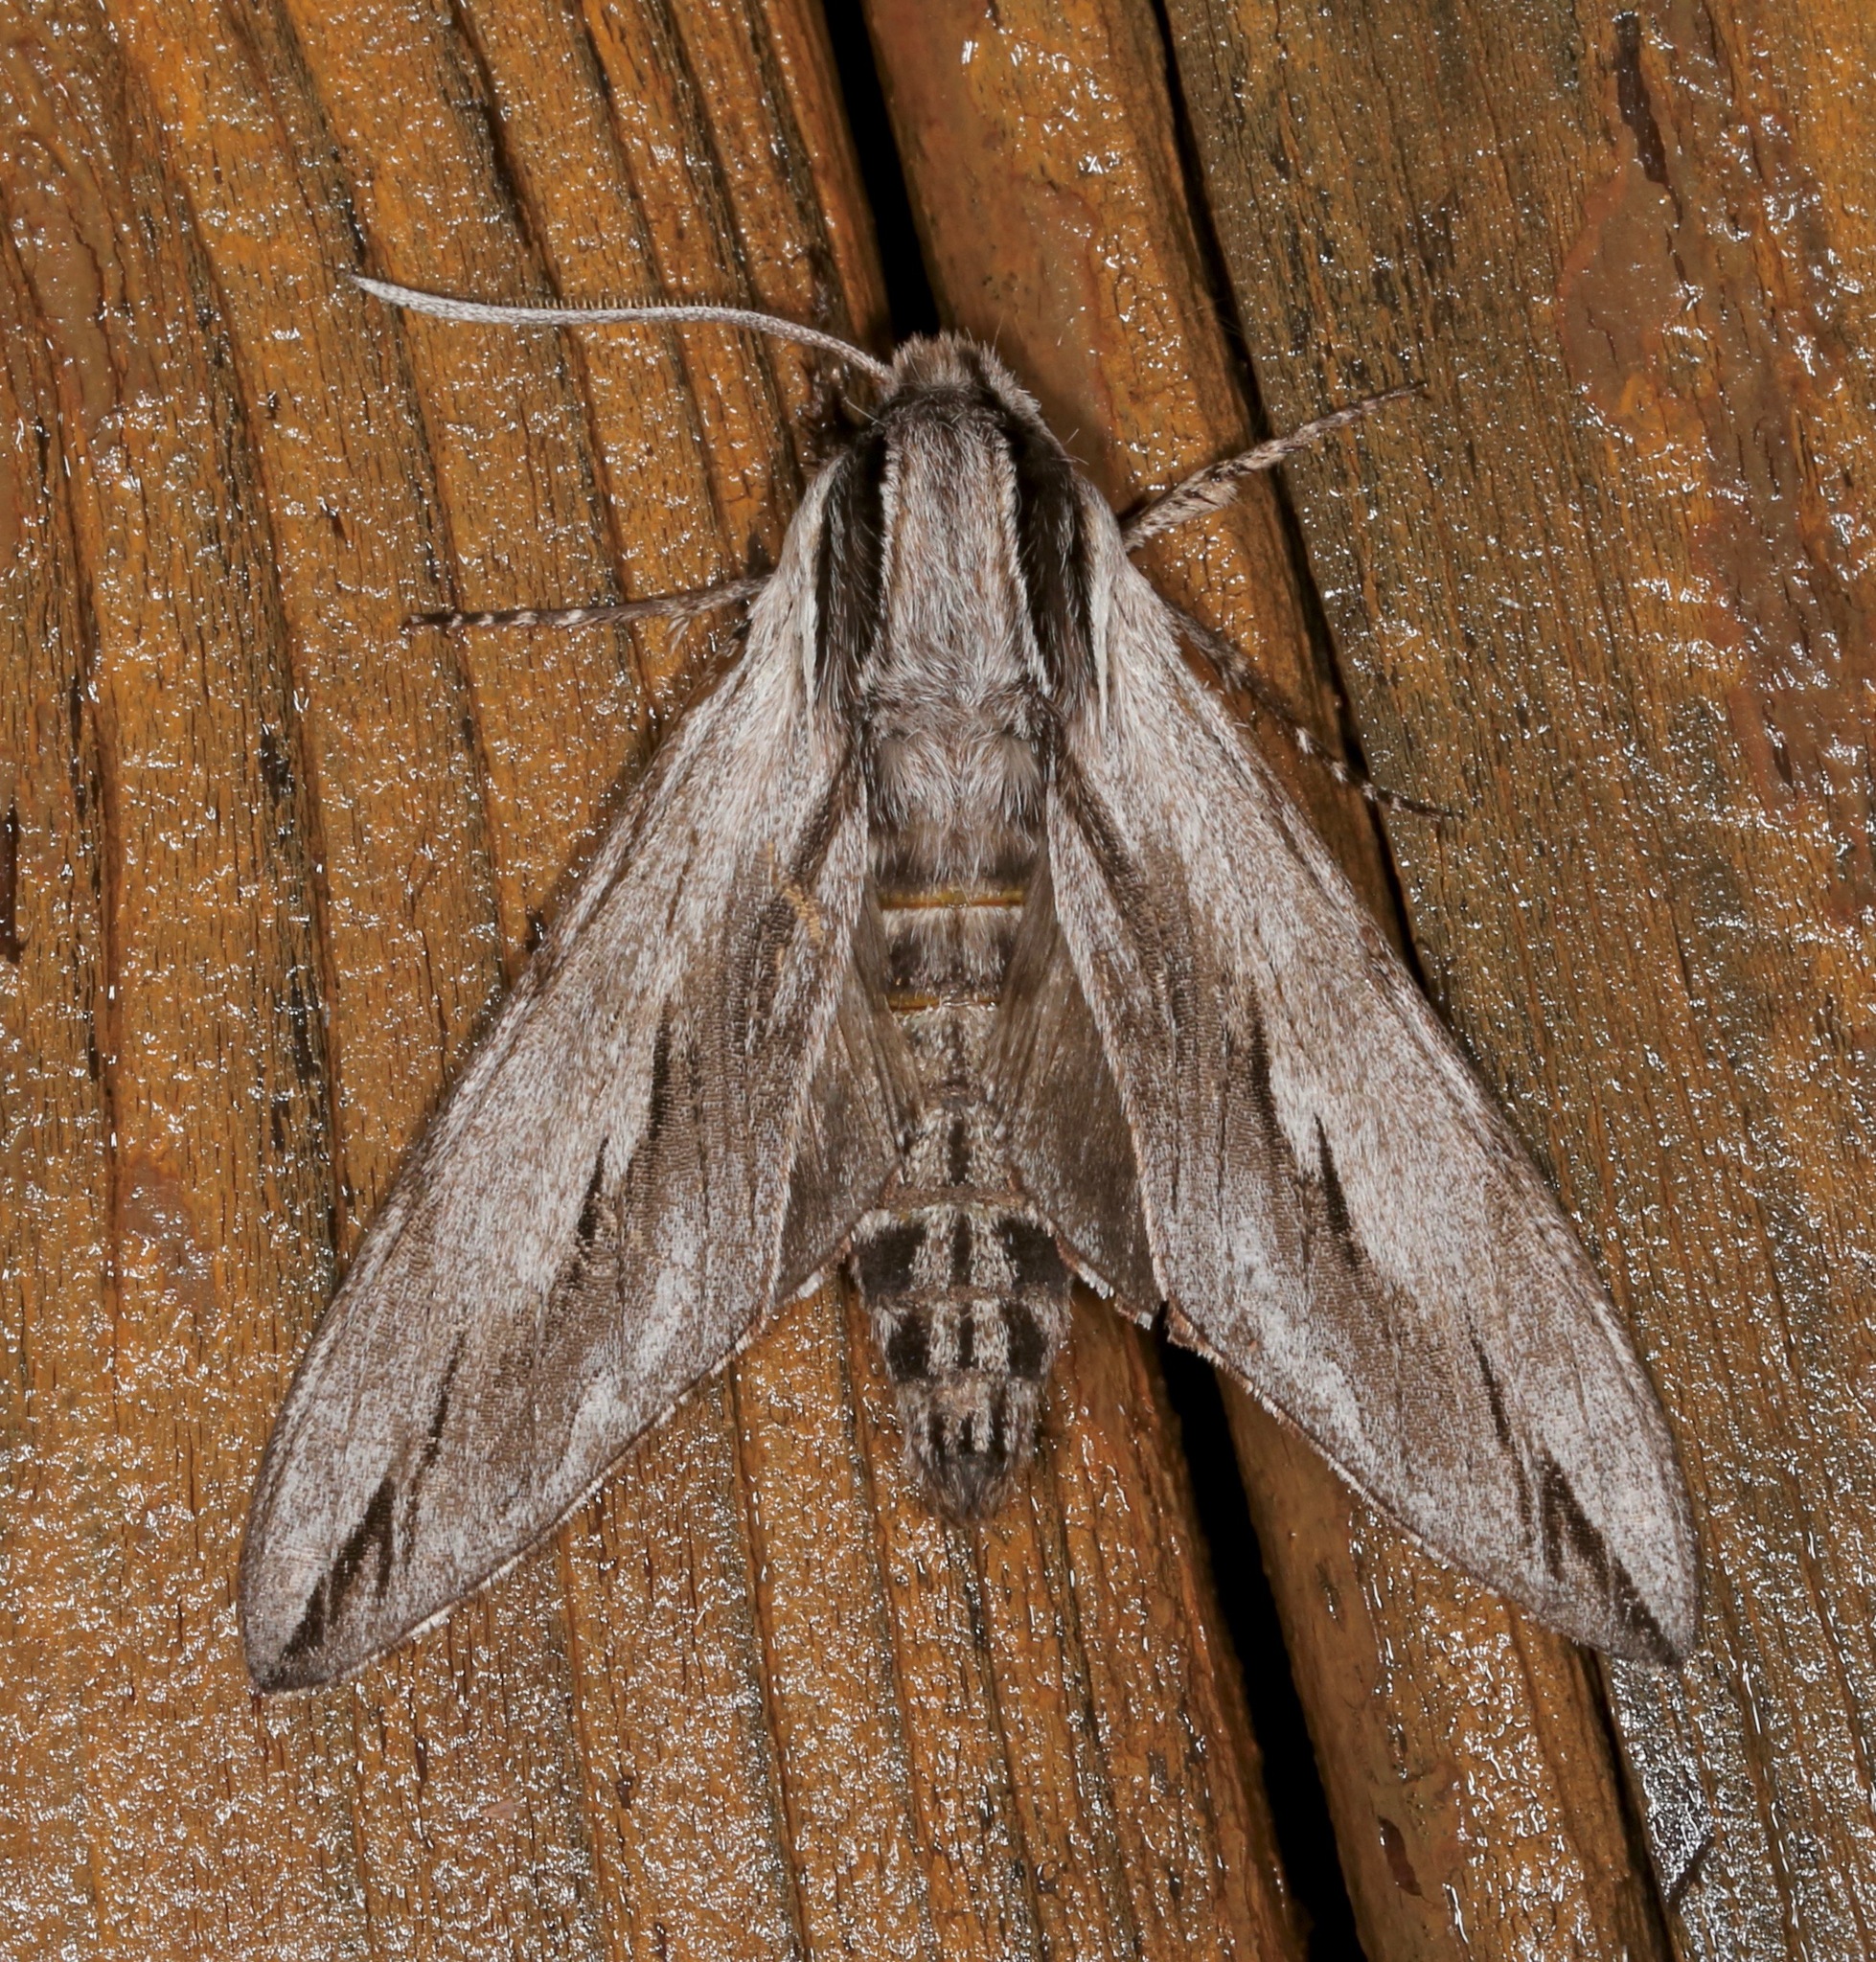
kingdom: Animalia
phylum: Arthropoda
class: Insecta
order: Lepidoptera
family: Sphingidae
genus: Sphinx
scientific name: Sphinx dollii
